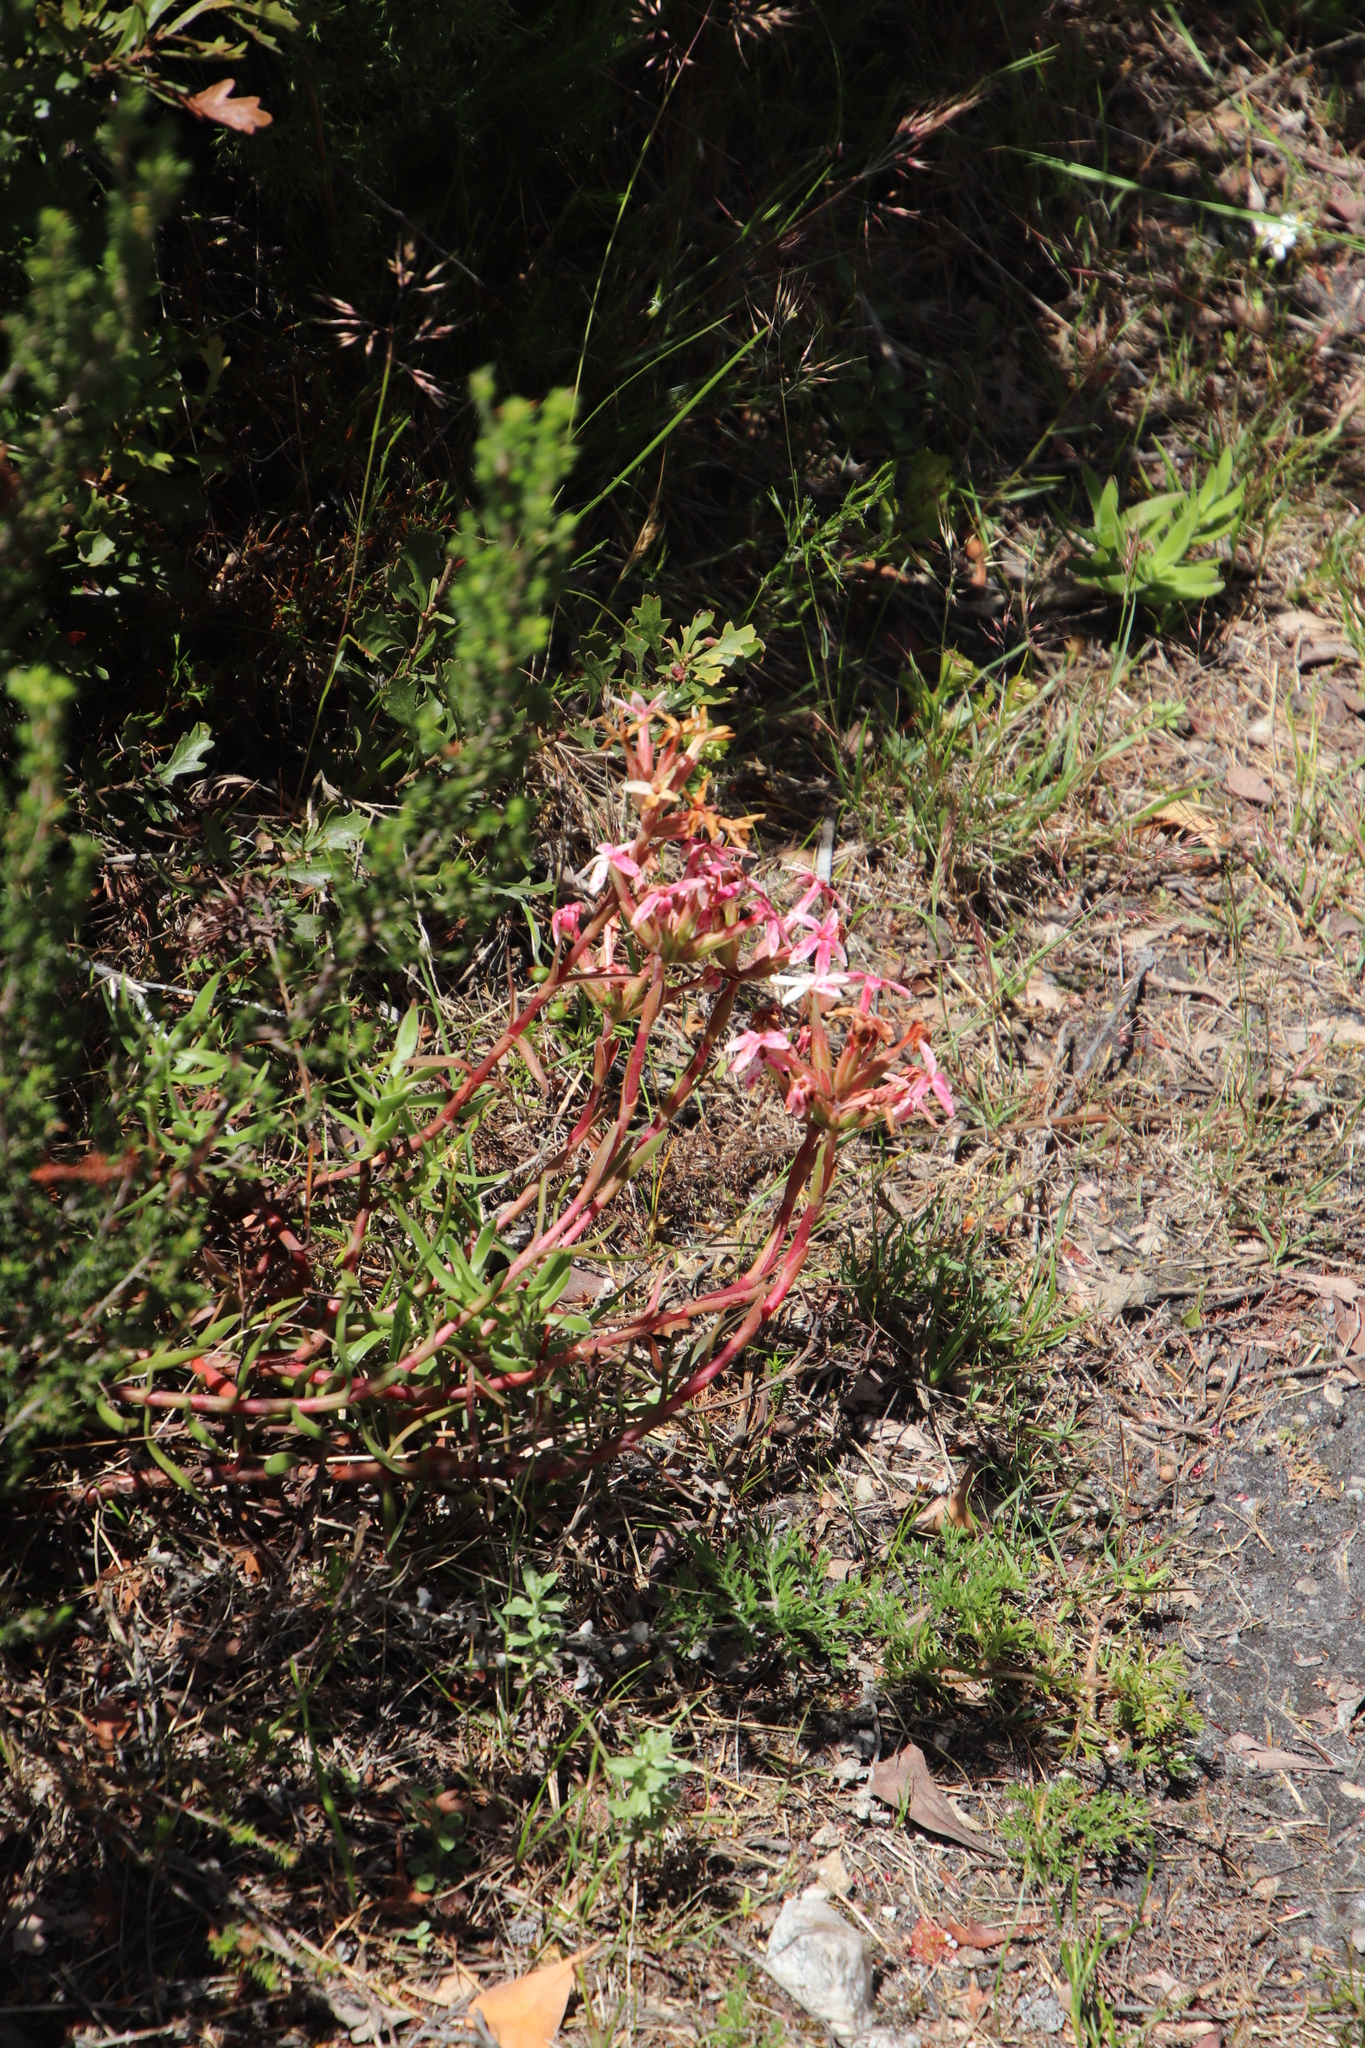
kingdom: Plantae
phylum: Tracheophyta
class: Magnoliopsida
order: Saxifragales
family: Crassulaceae
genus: Crassula
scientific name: Crassula fascicularis
